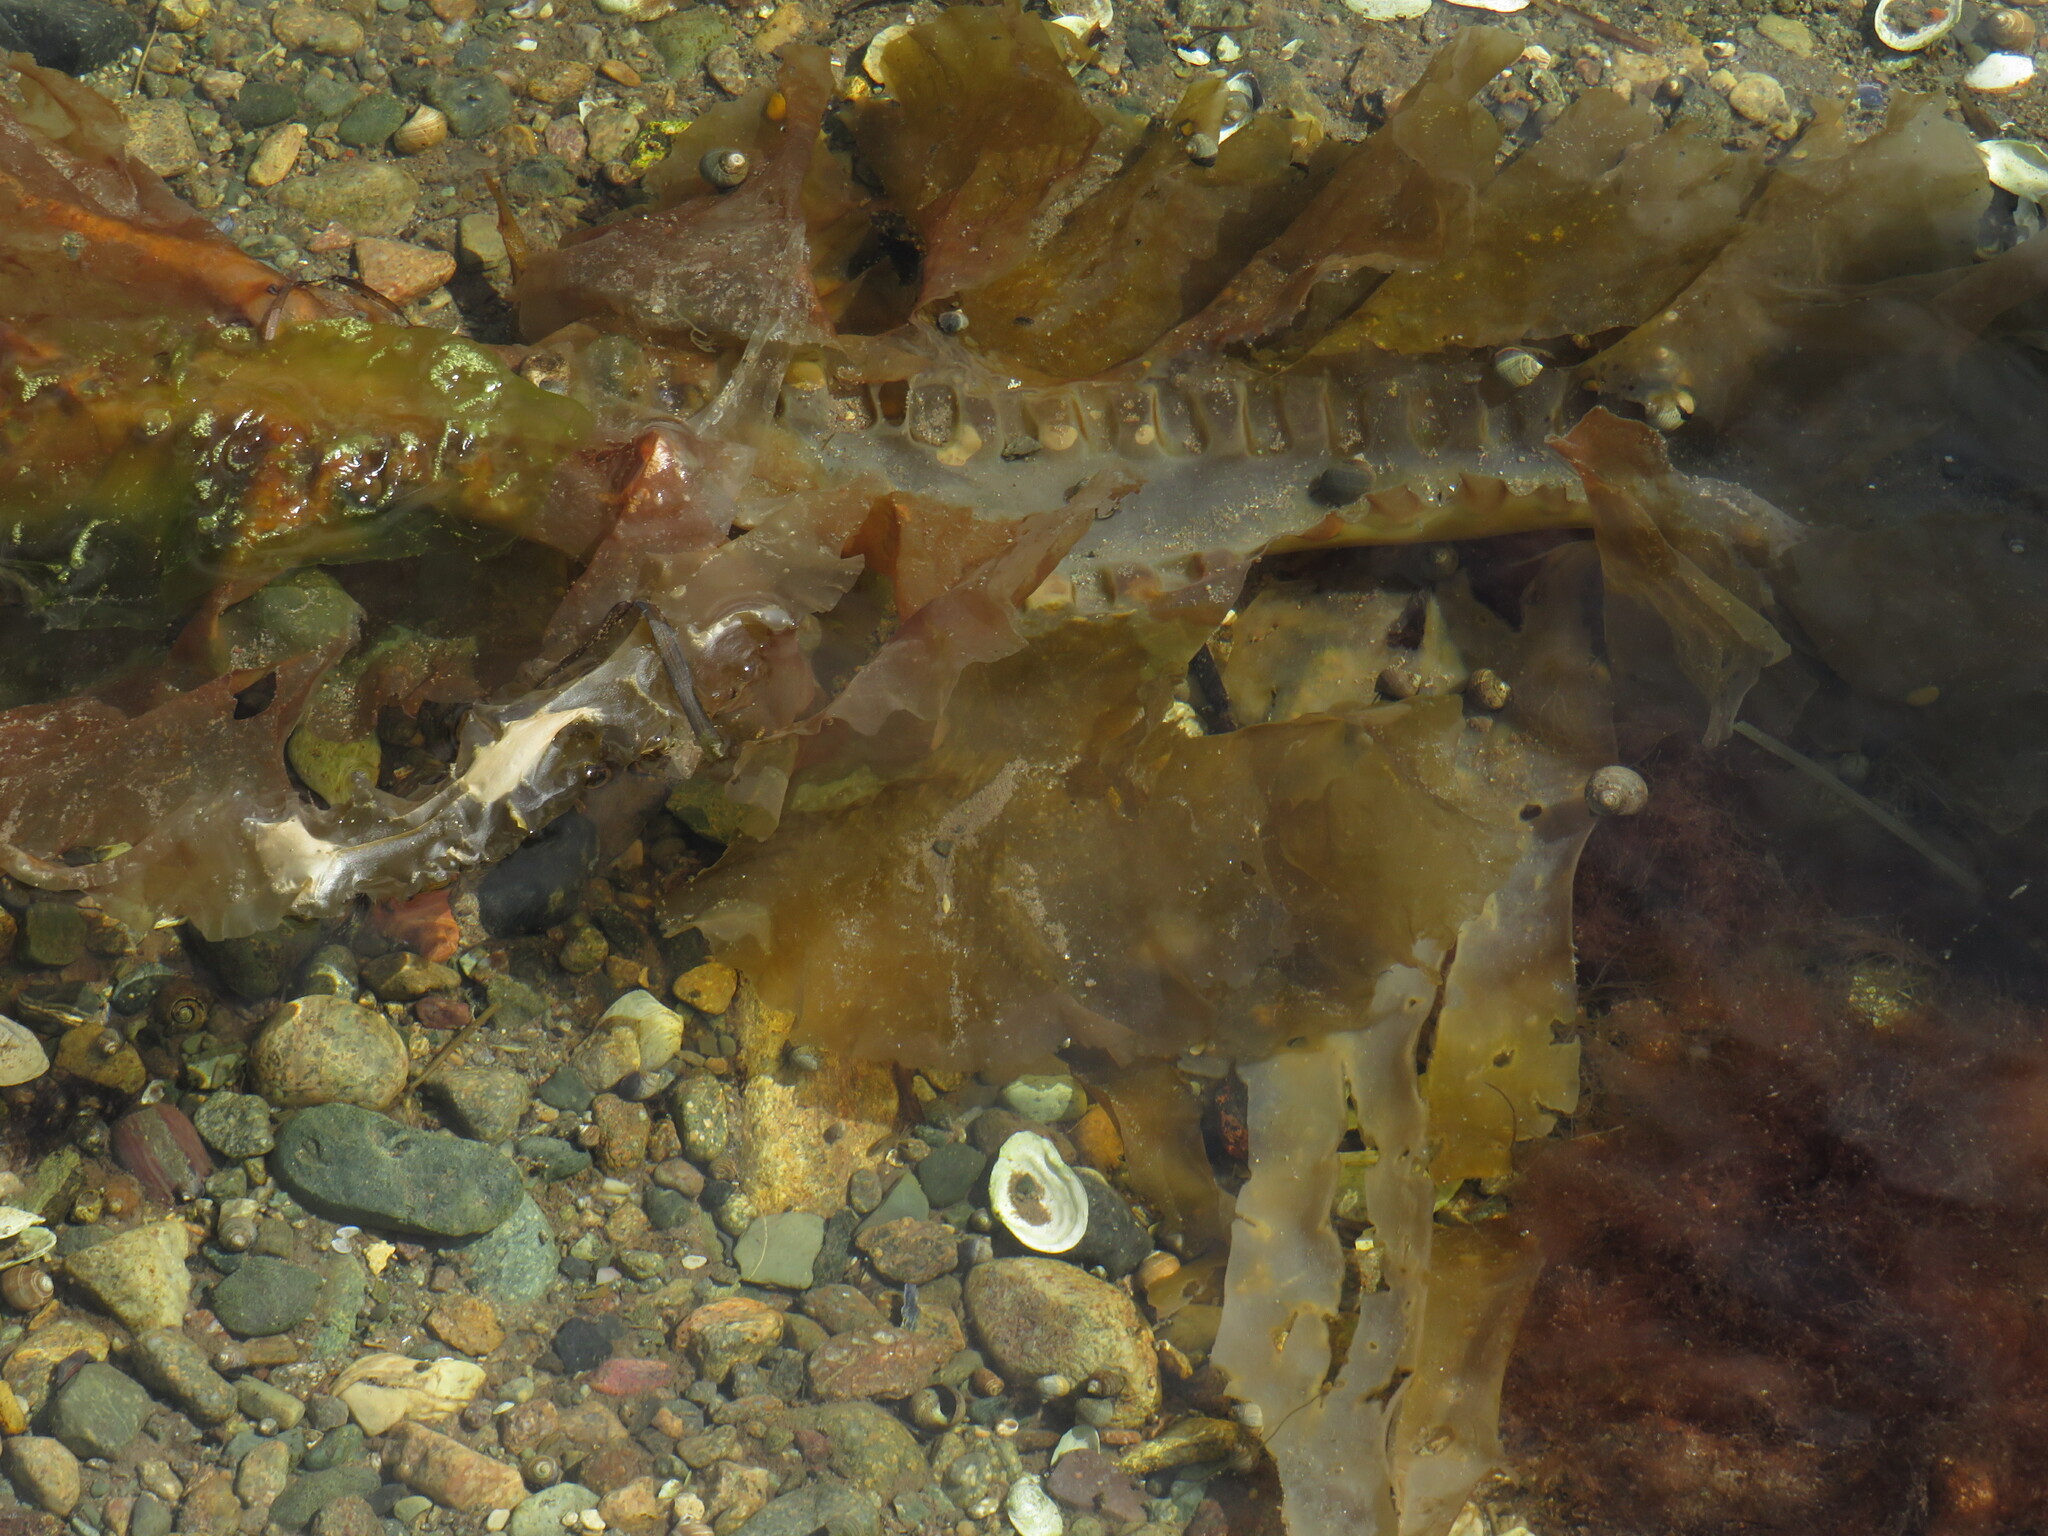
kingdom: Chromista
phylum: Ochrophyta
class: Phaeophyceae
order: Laminariales
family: Laminariaceae
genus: Saccharina
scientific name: Saccharina latissima
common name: Poor man's weather glass
